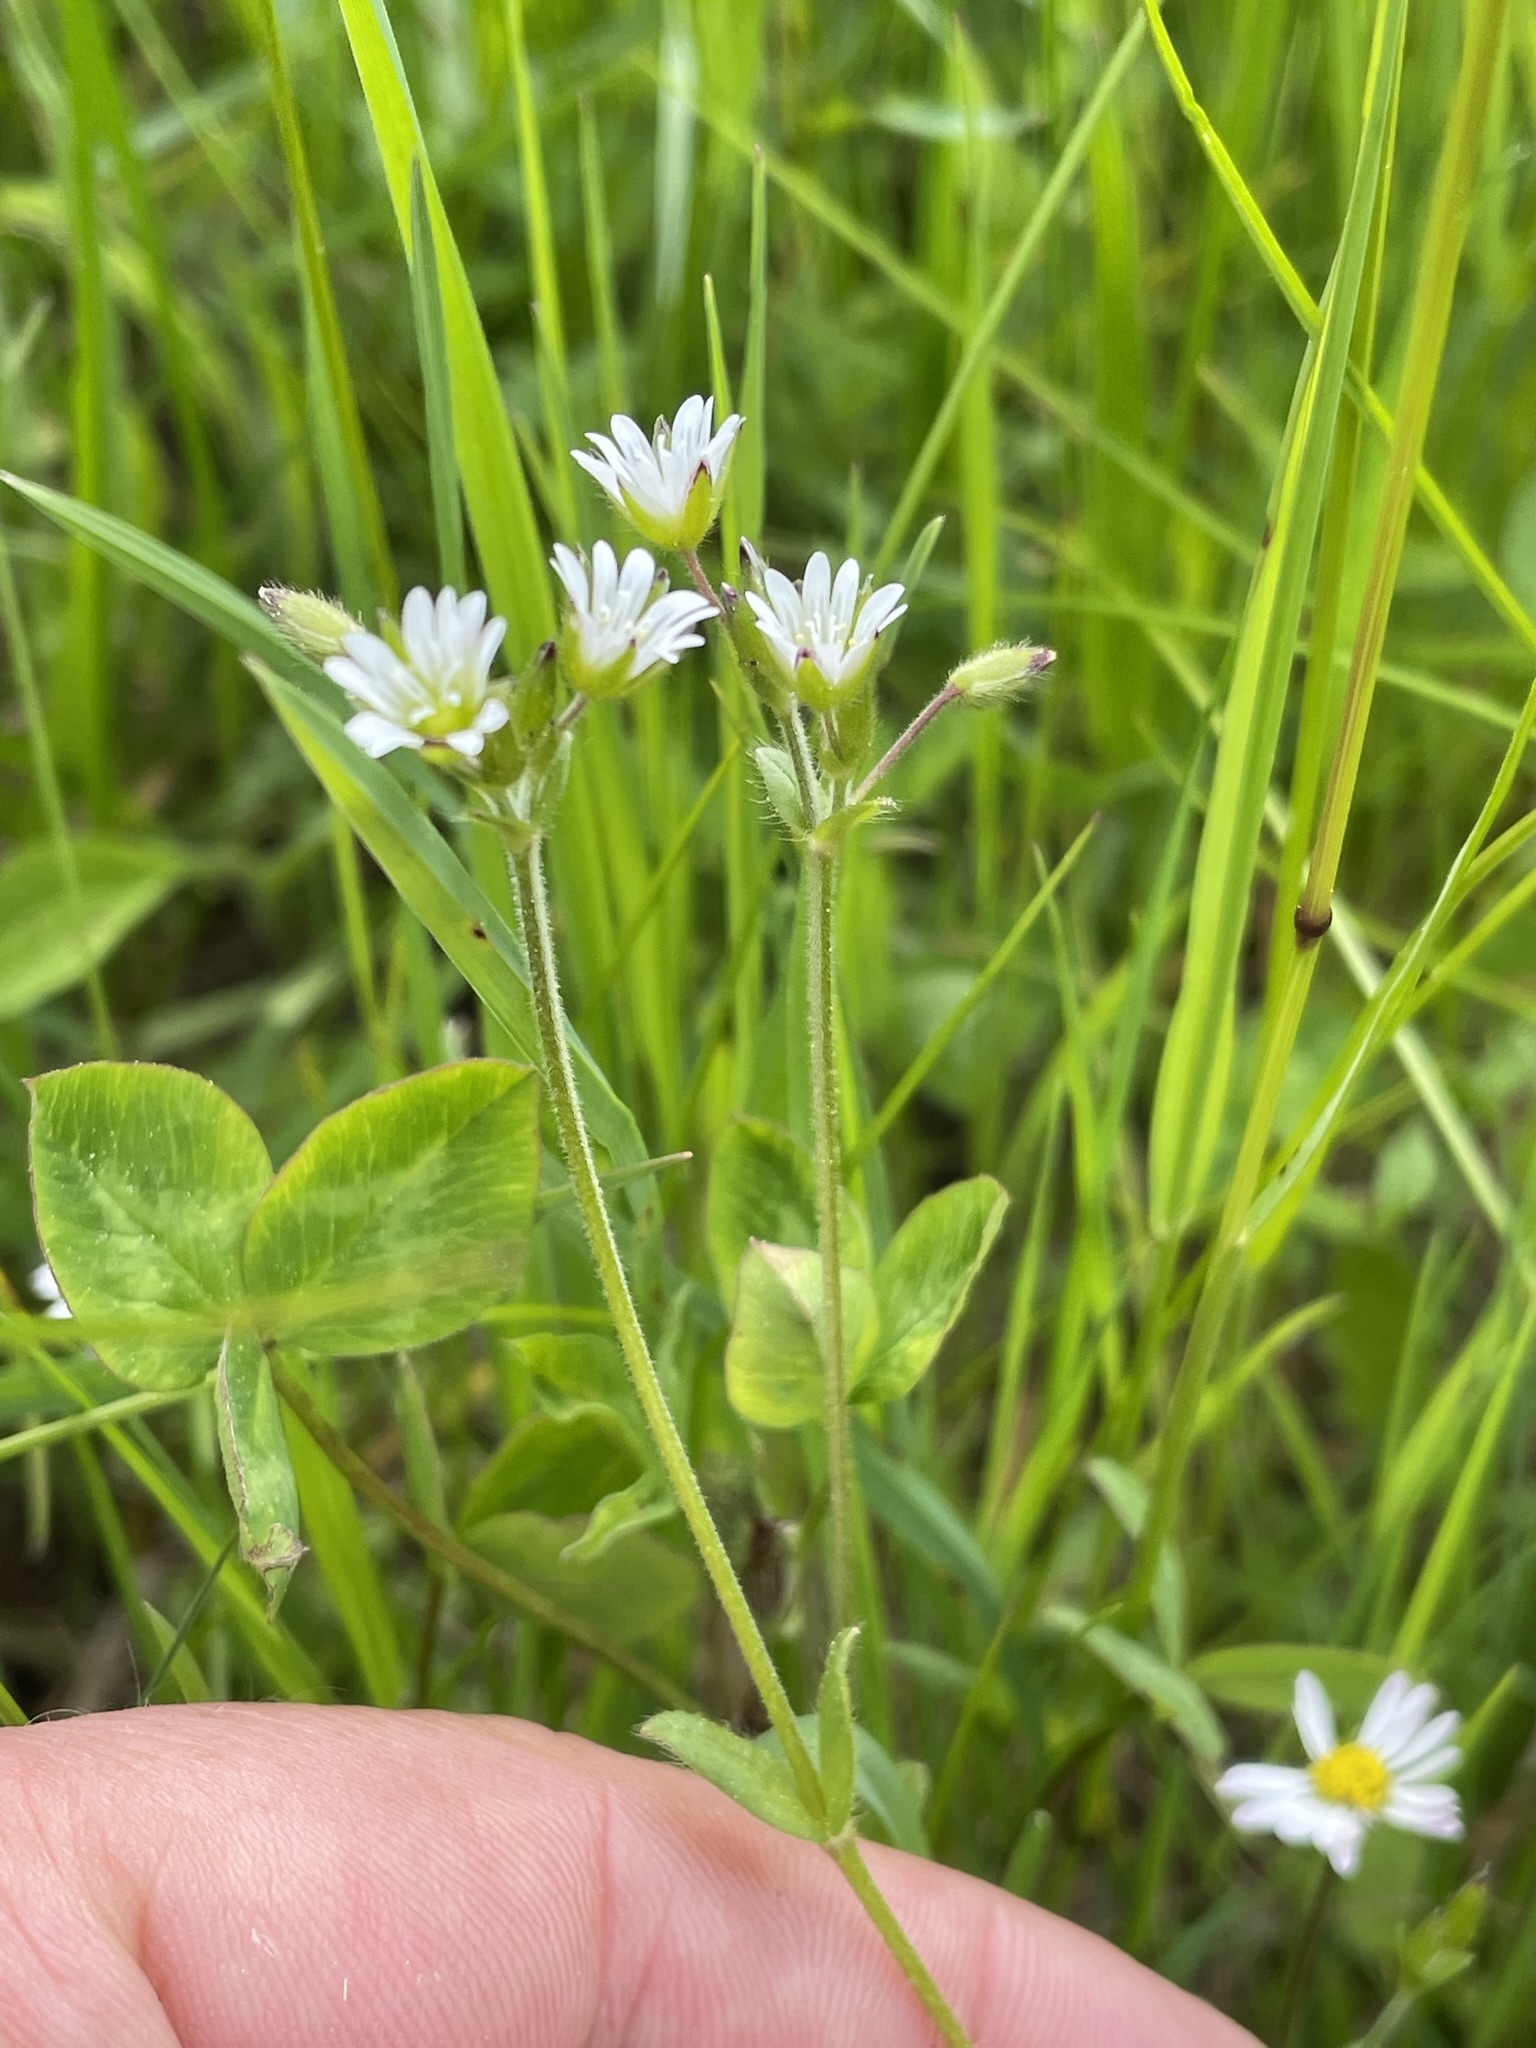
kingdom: Plantae
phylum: Tracheophyta
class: Magnoliopsida
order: Caryophyllales
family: Caryophyllaceae
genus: Cerastium
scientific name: Cerastium holosteoides
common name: Big chickweed
